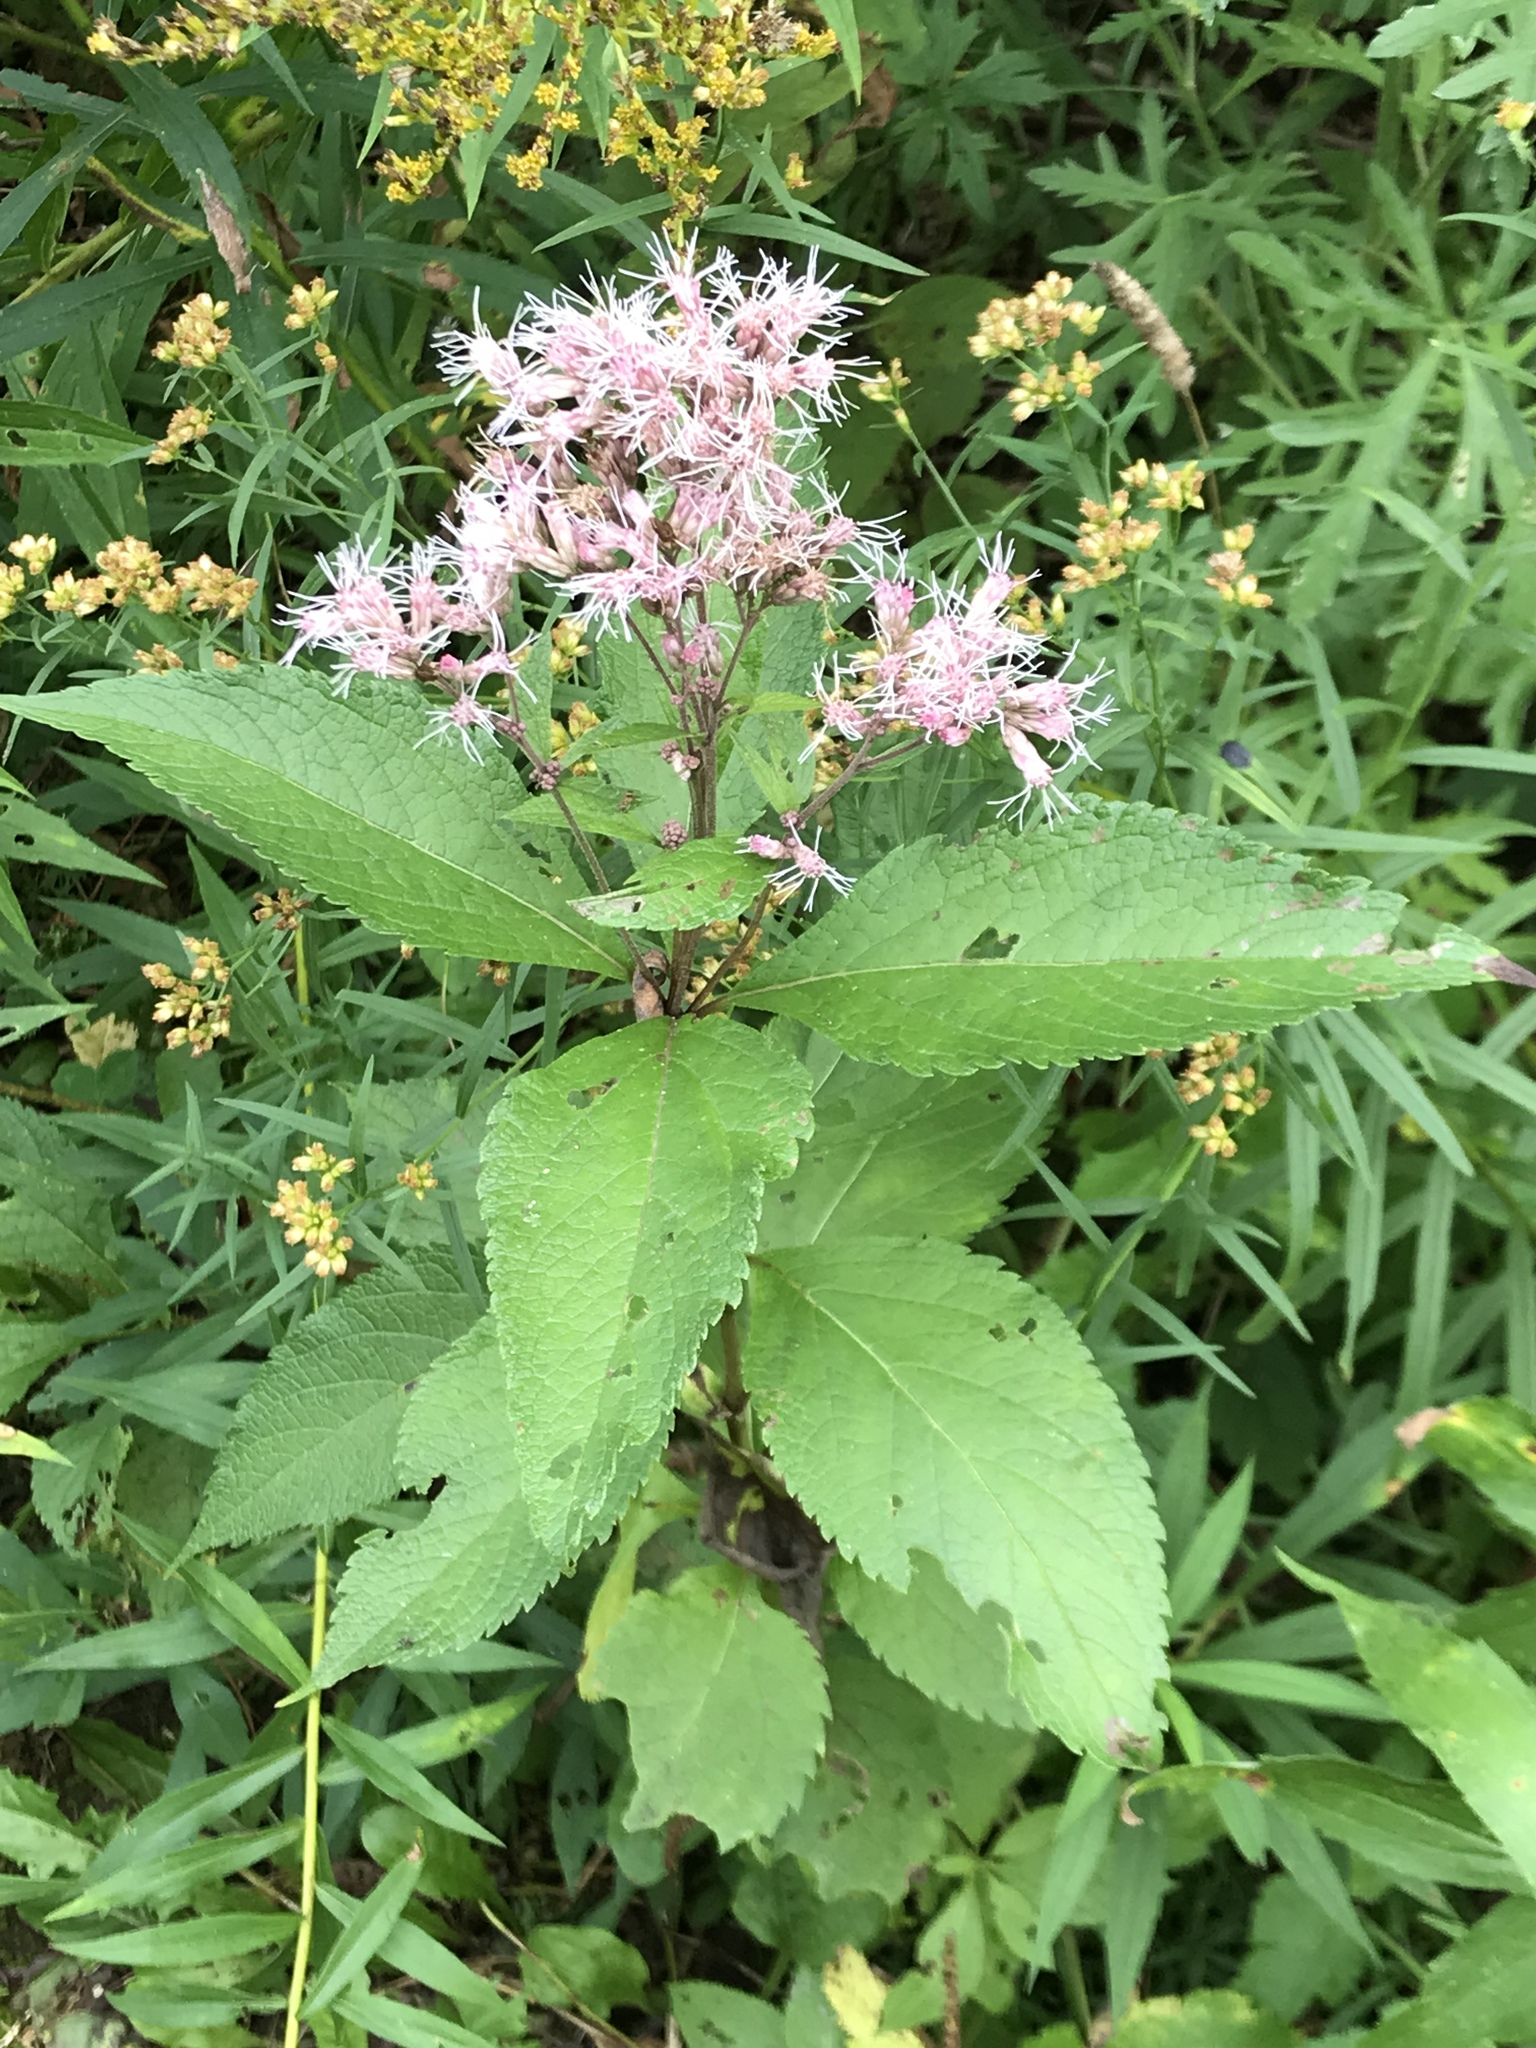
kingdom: Plantae
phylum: Tracheophyta
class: Magnoliopsida
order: Asterales
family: Asteraceae
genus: Eutrochium
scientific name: Eutrochium maculatum
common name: Spotted joe pye weed
